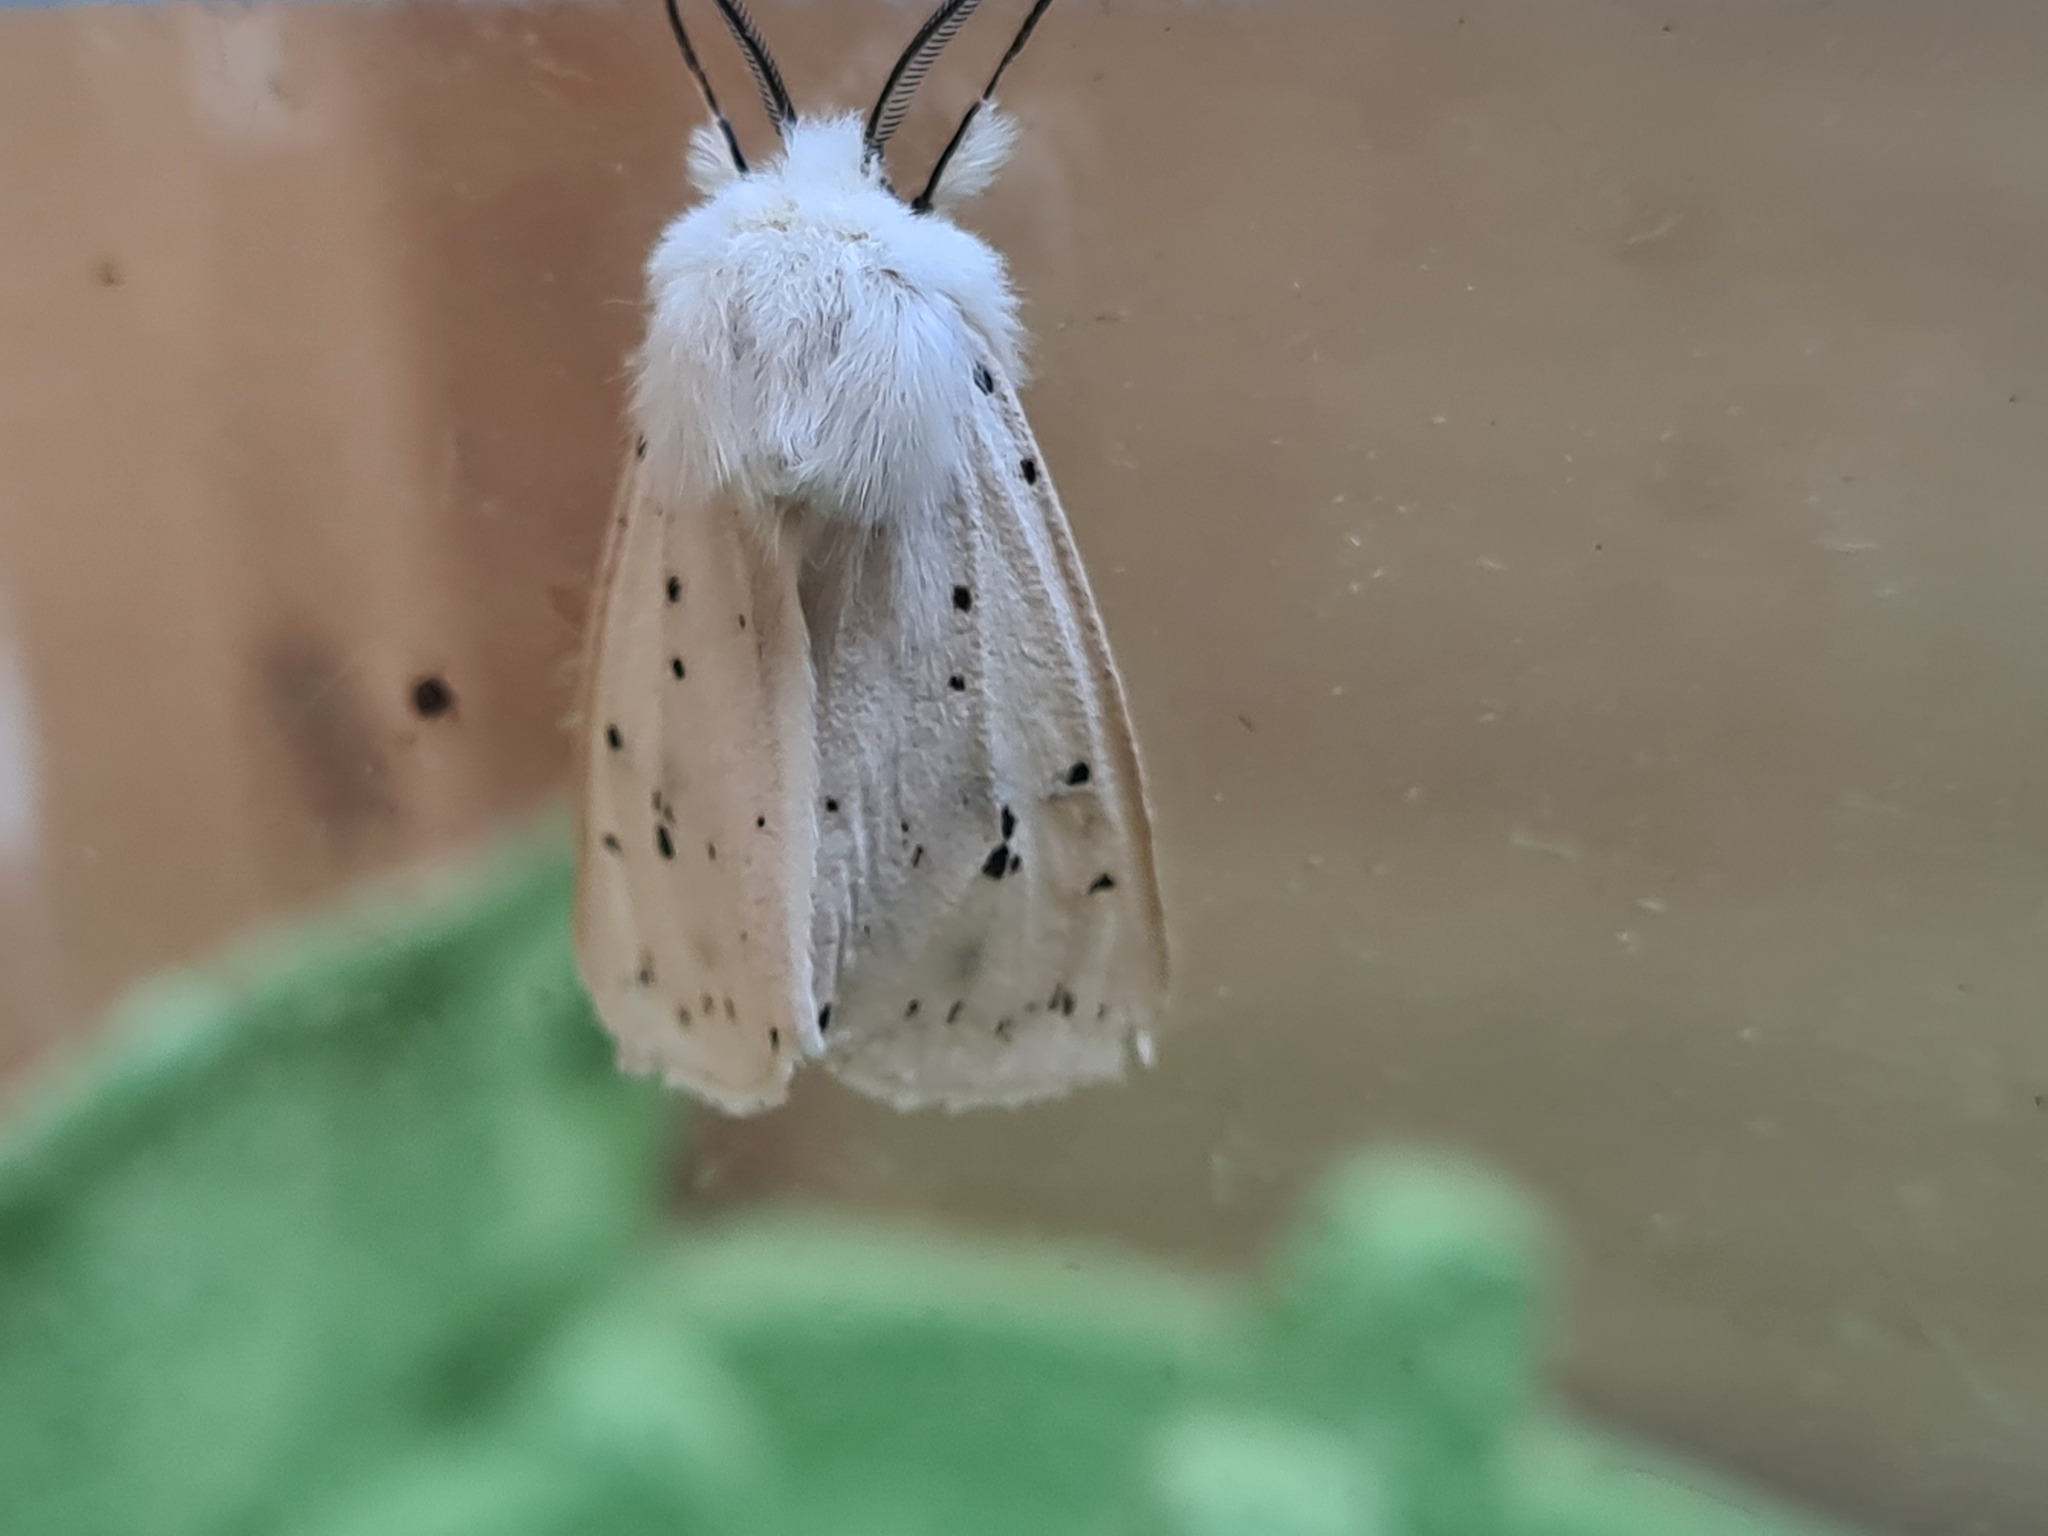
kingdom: Animalia
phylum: Arthropoda
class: Insecta
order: Lepidoptera
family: Erebidae
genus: Spilosoma
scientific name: Spilosoma lubricipeda
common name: White ermine
